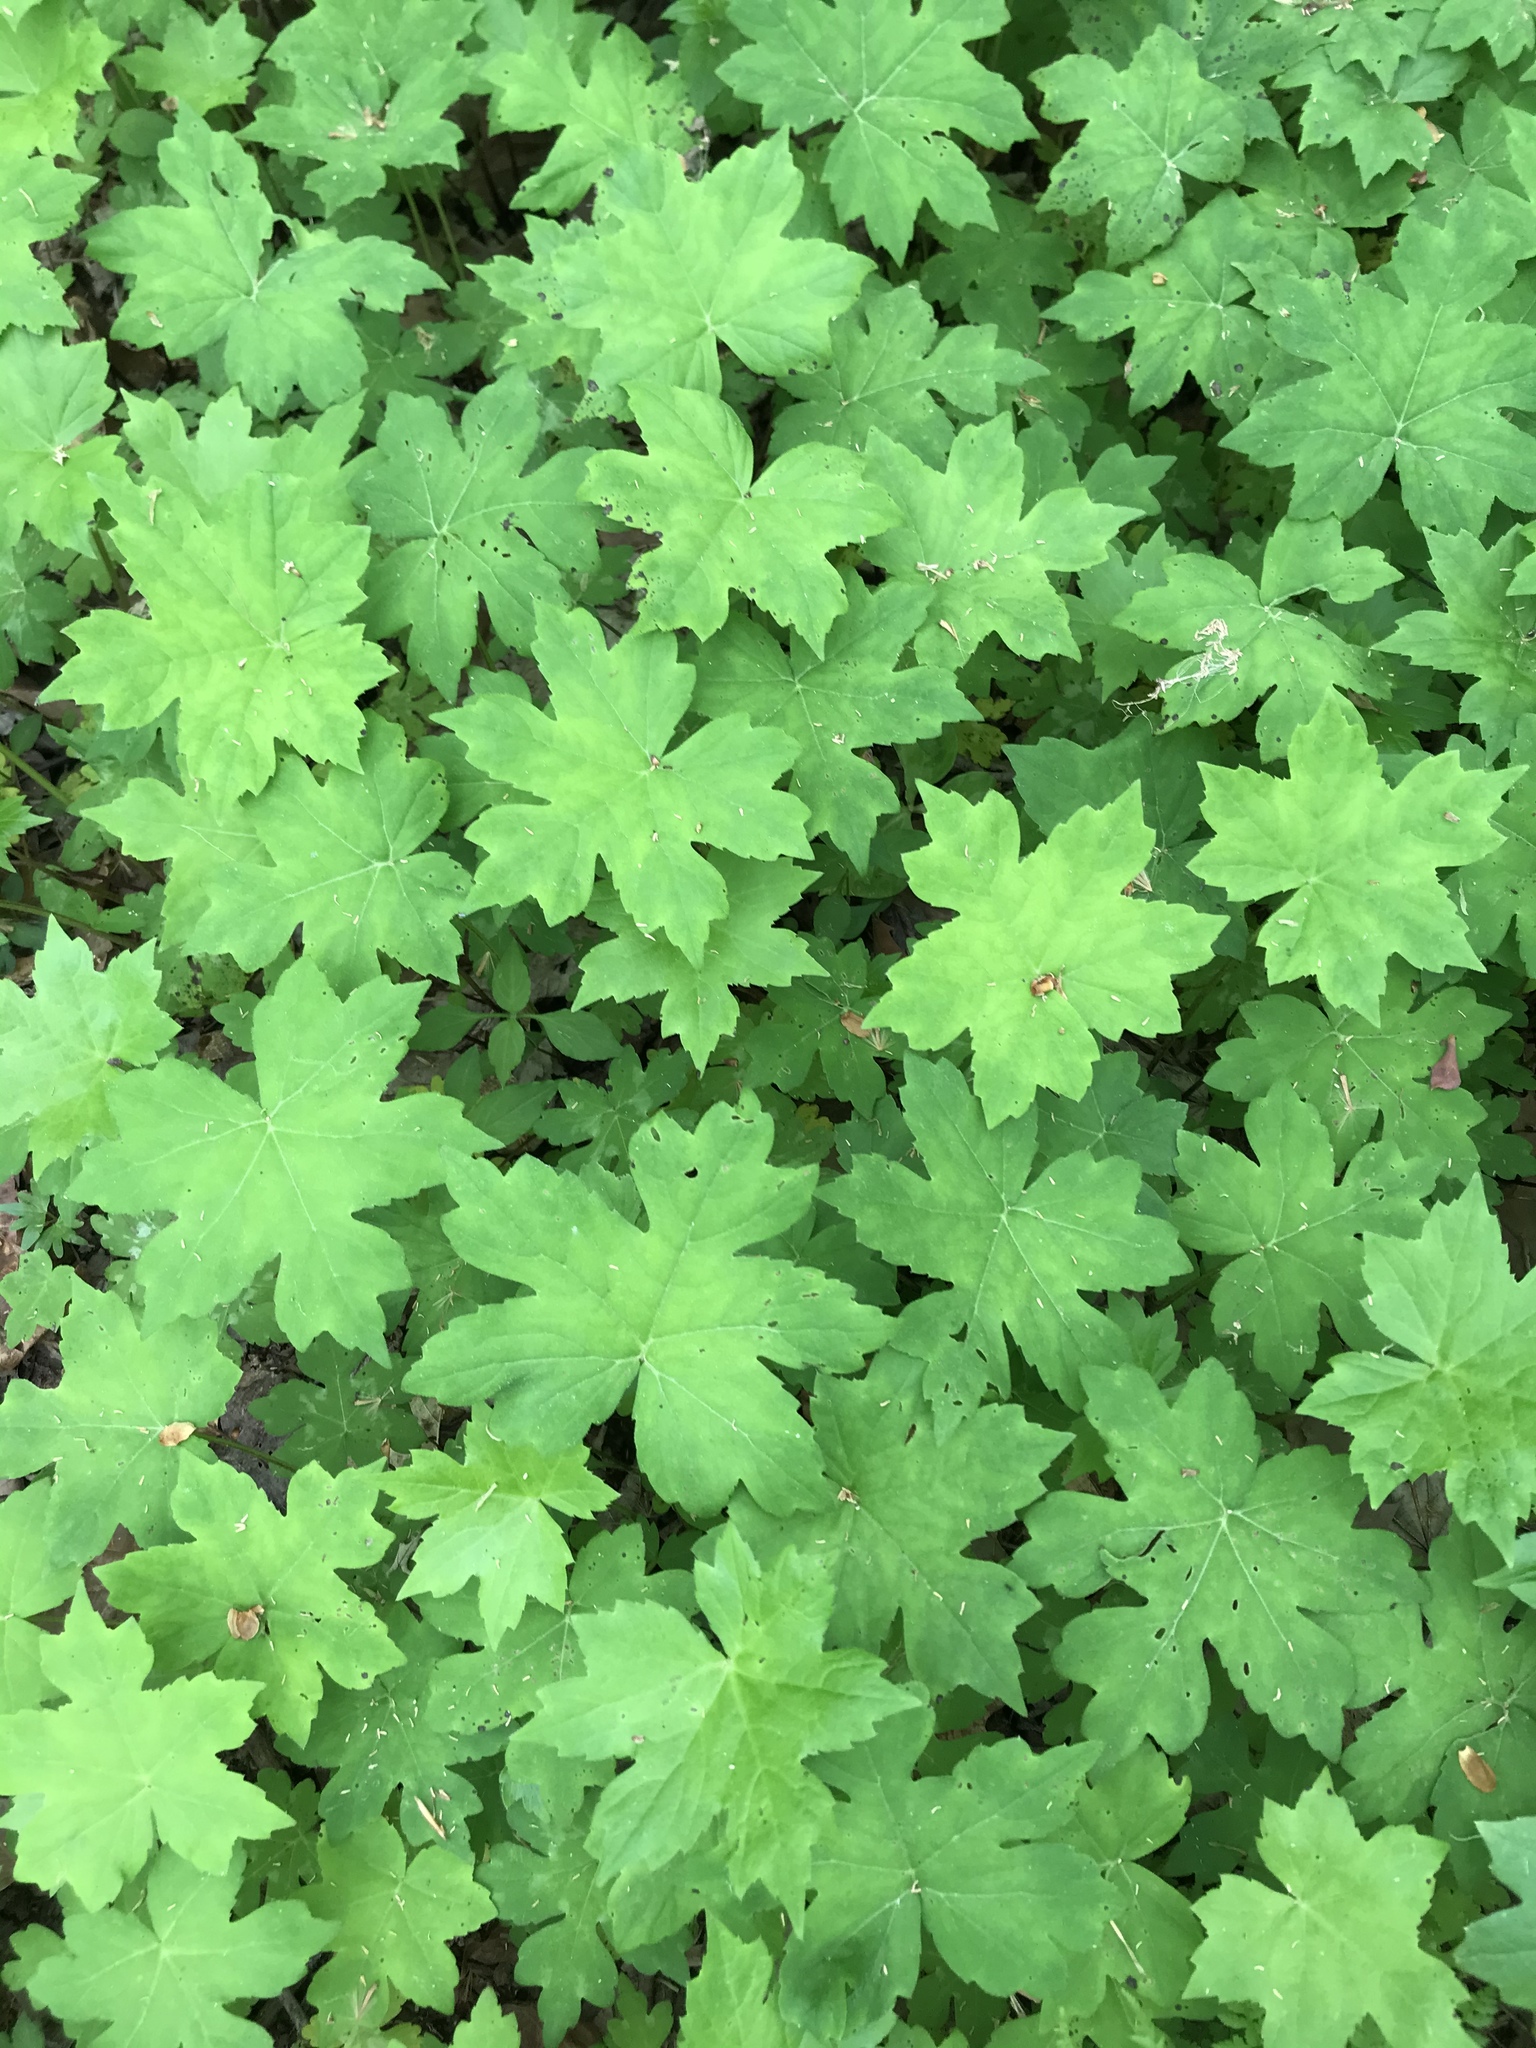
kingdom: Plantae
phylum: Tracheophyta
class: Magnoliopsida
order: Boraginales
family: Hydrophyllaceae
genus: Hydrophyllum
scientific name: Hydrophyllum canadense
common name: Canada waterleaf
